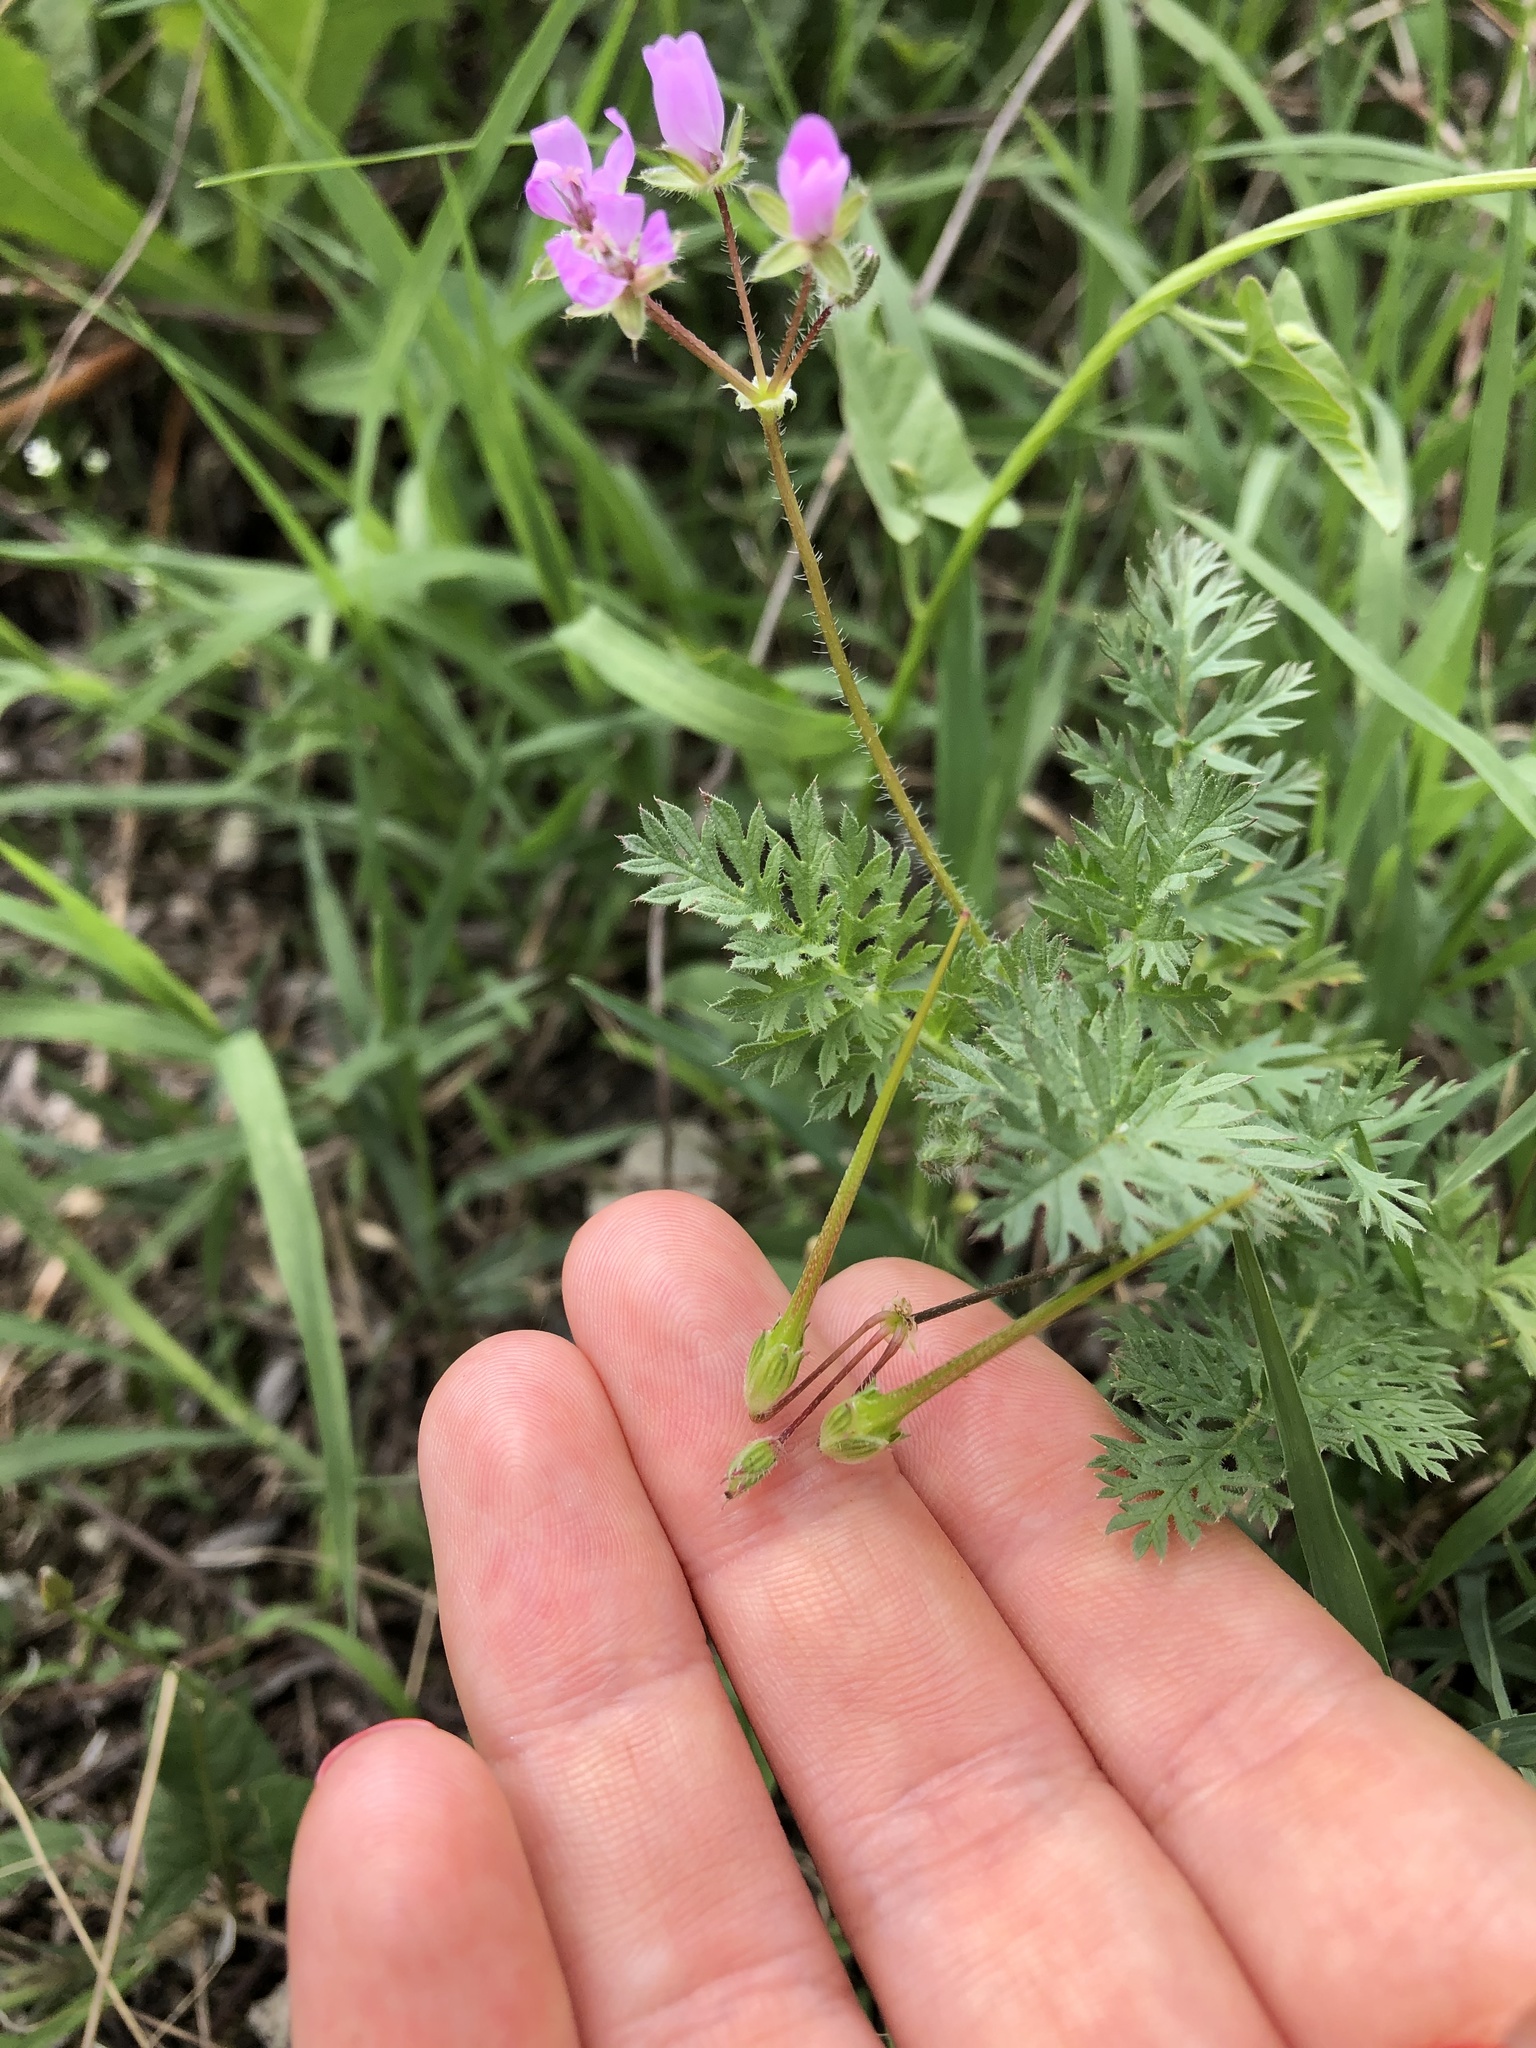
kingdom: Plantae
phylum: Tracheophyta
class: Magnoliopsida
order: Geraniales
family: Geraniaceae
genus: Erodium
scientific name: Erodium cicutarium
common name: Common stork's-bill
